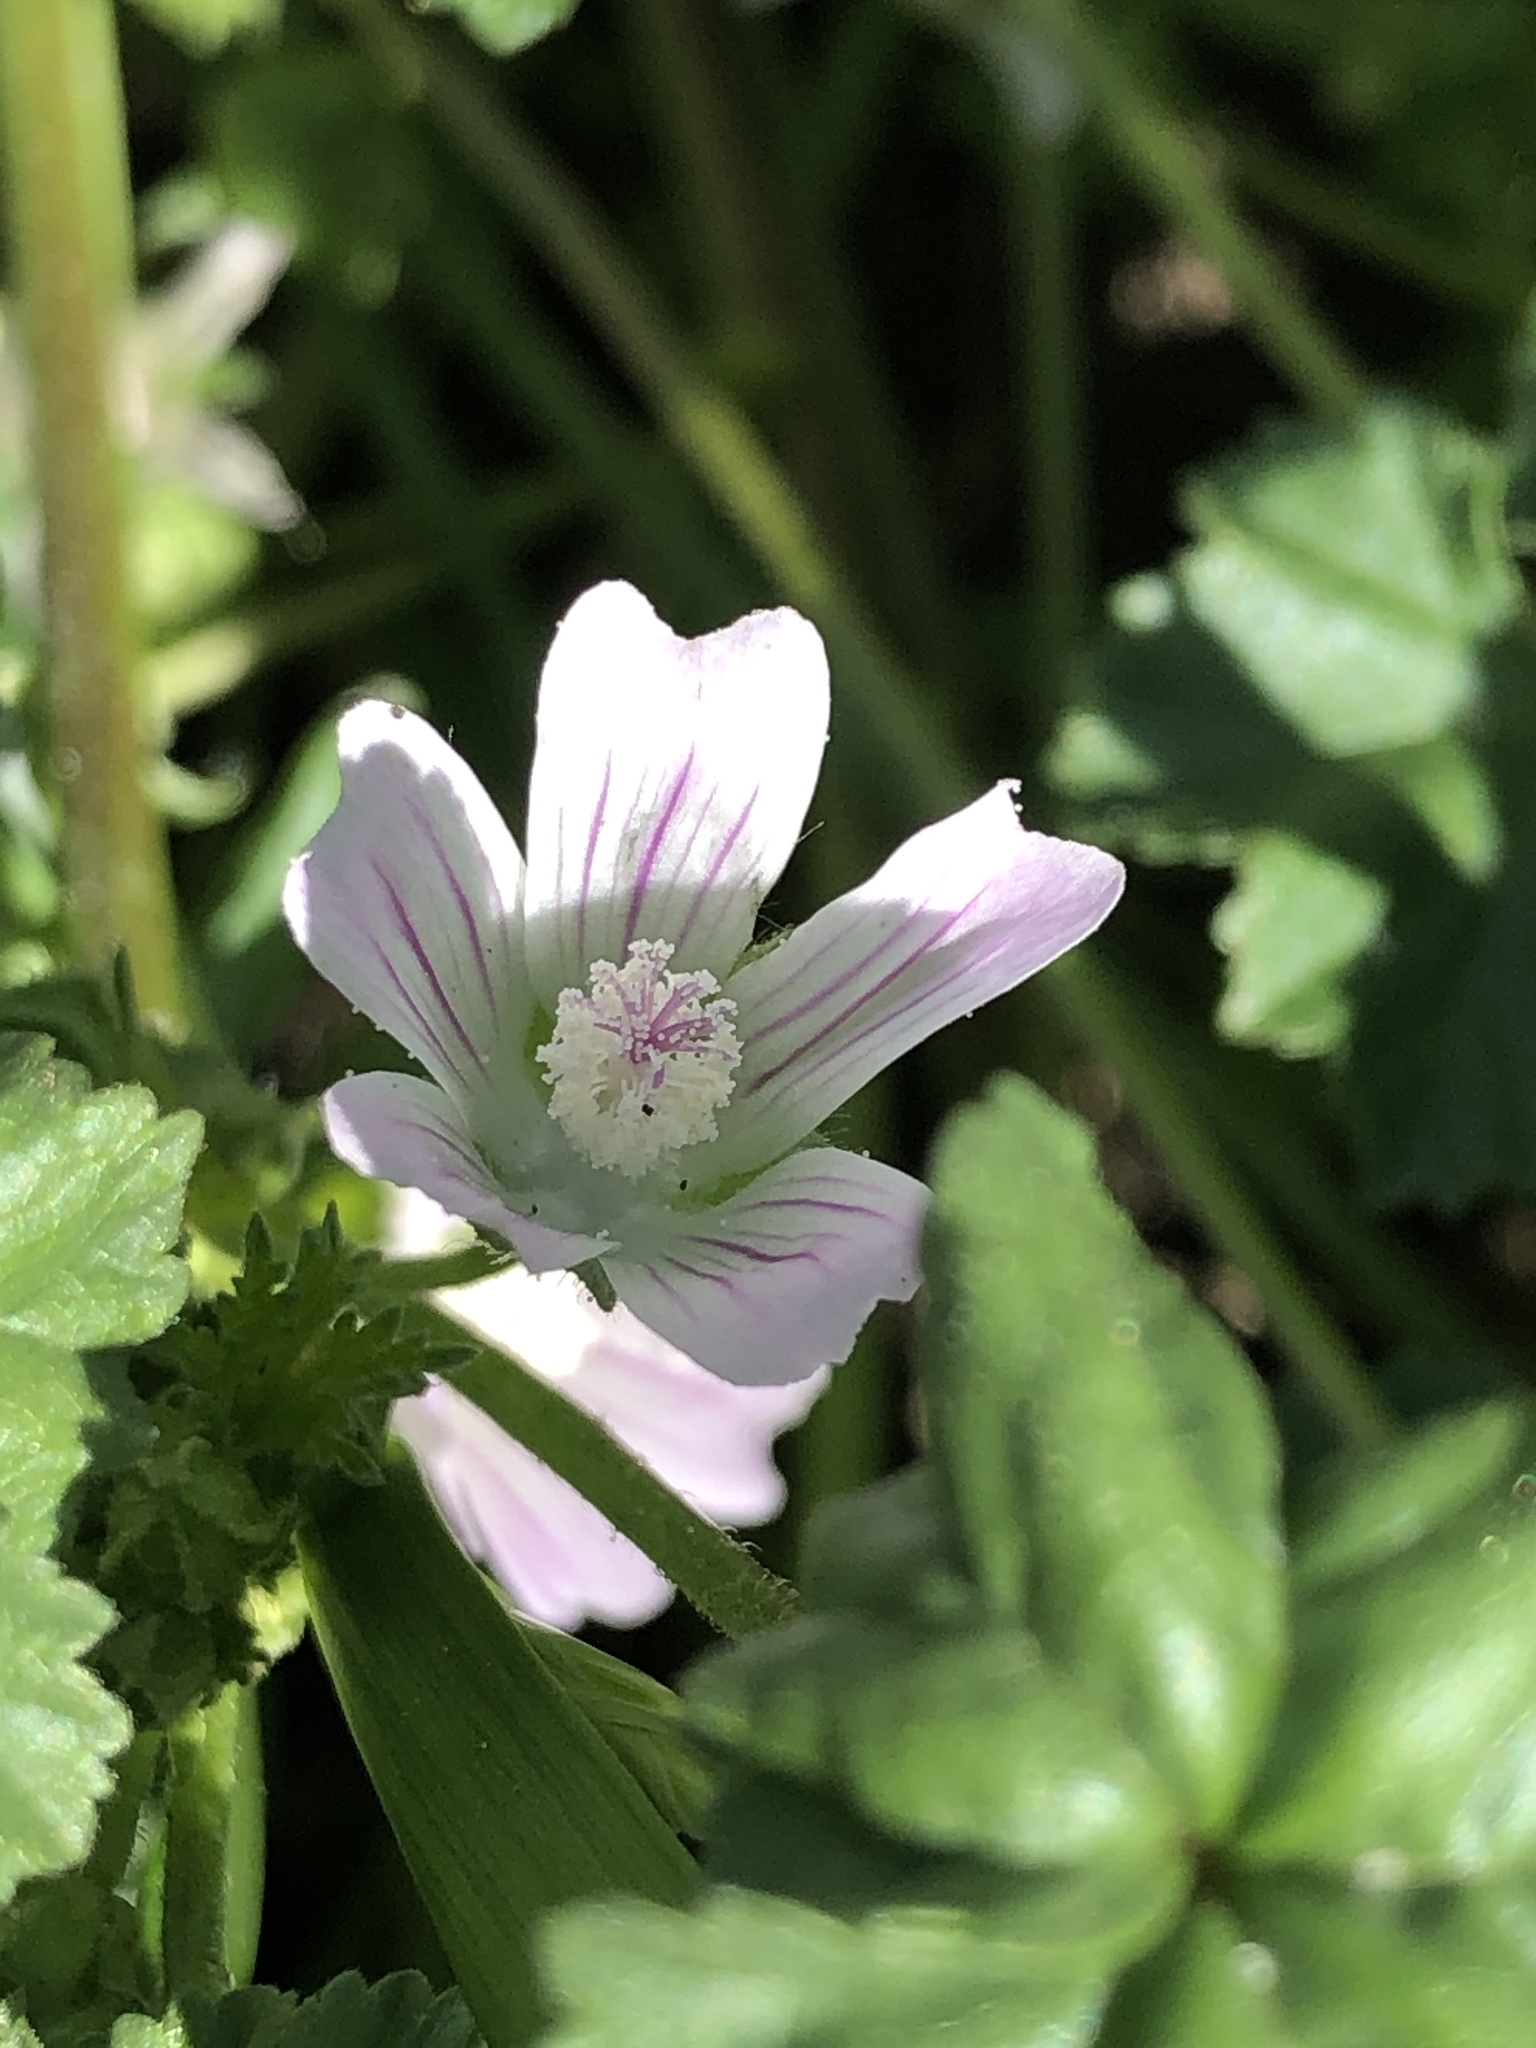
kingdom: Plantae
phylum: Tracheophyta
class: Magnoliopsida
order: Malvales
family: Malvaceae
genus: Malva
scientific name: Malva neglecta
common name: Common mallow
